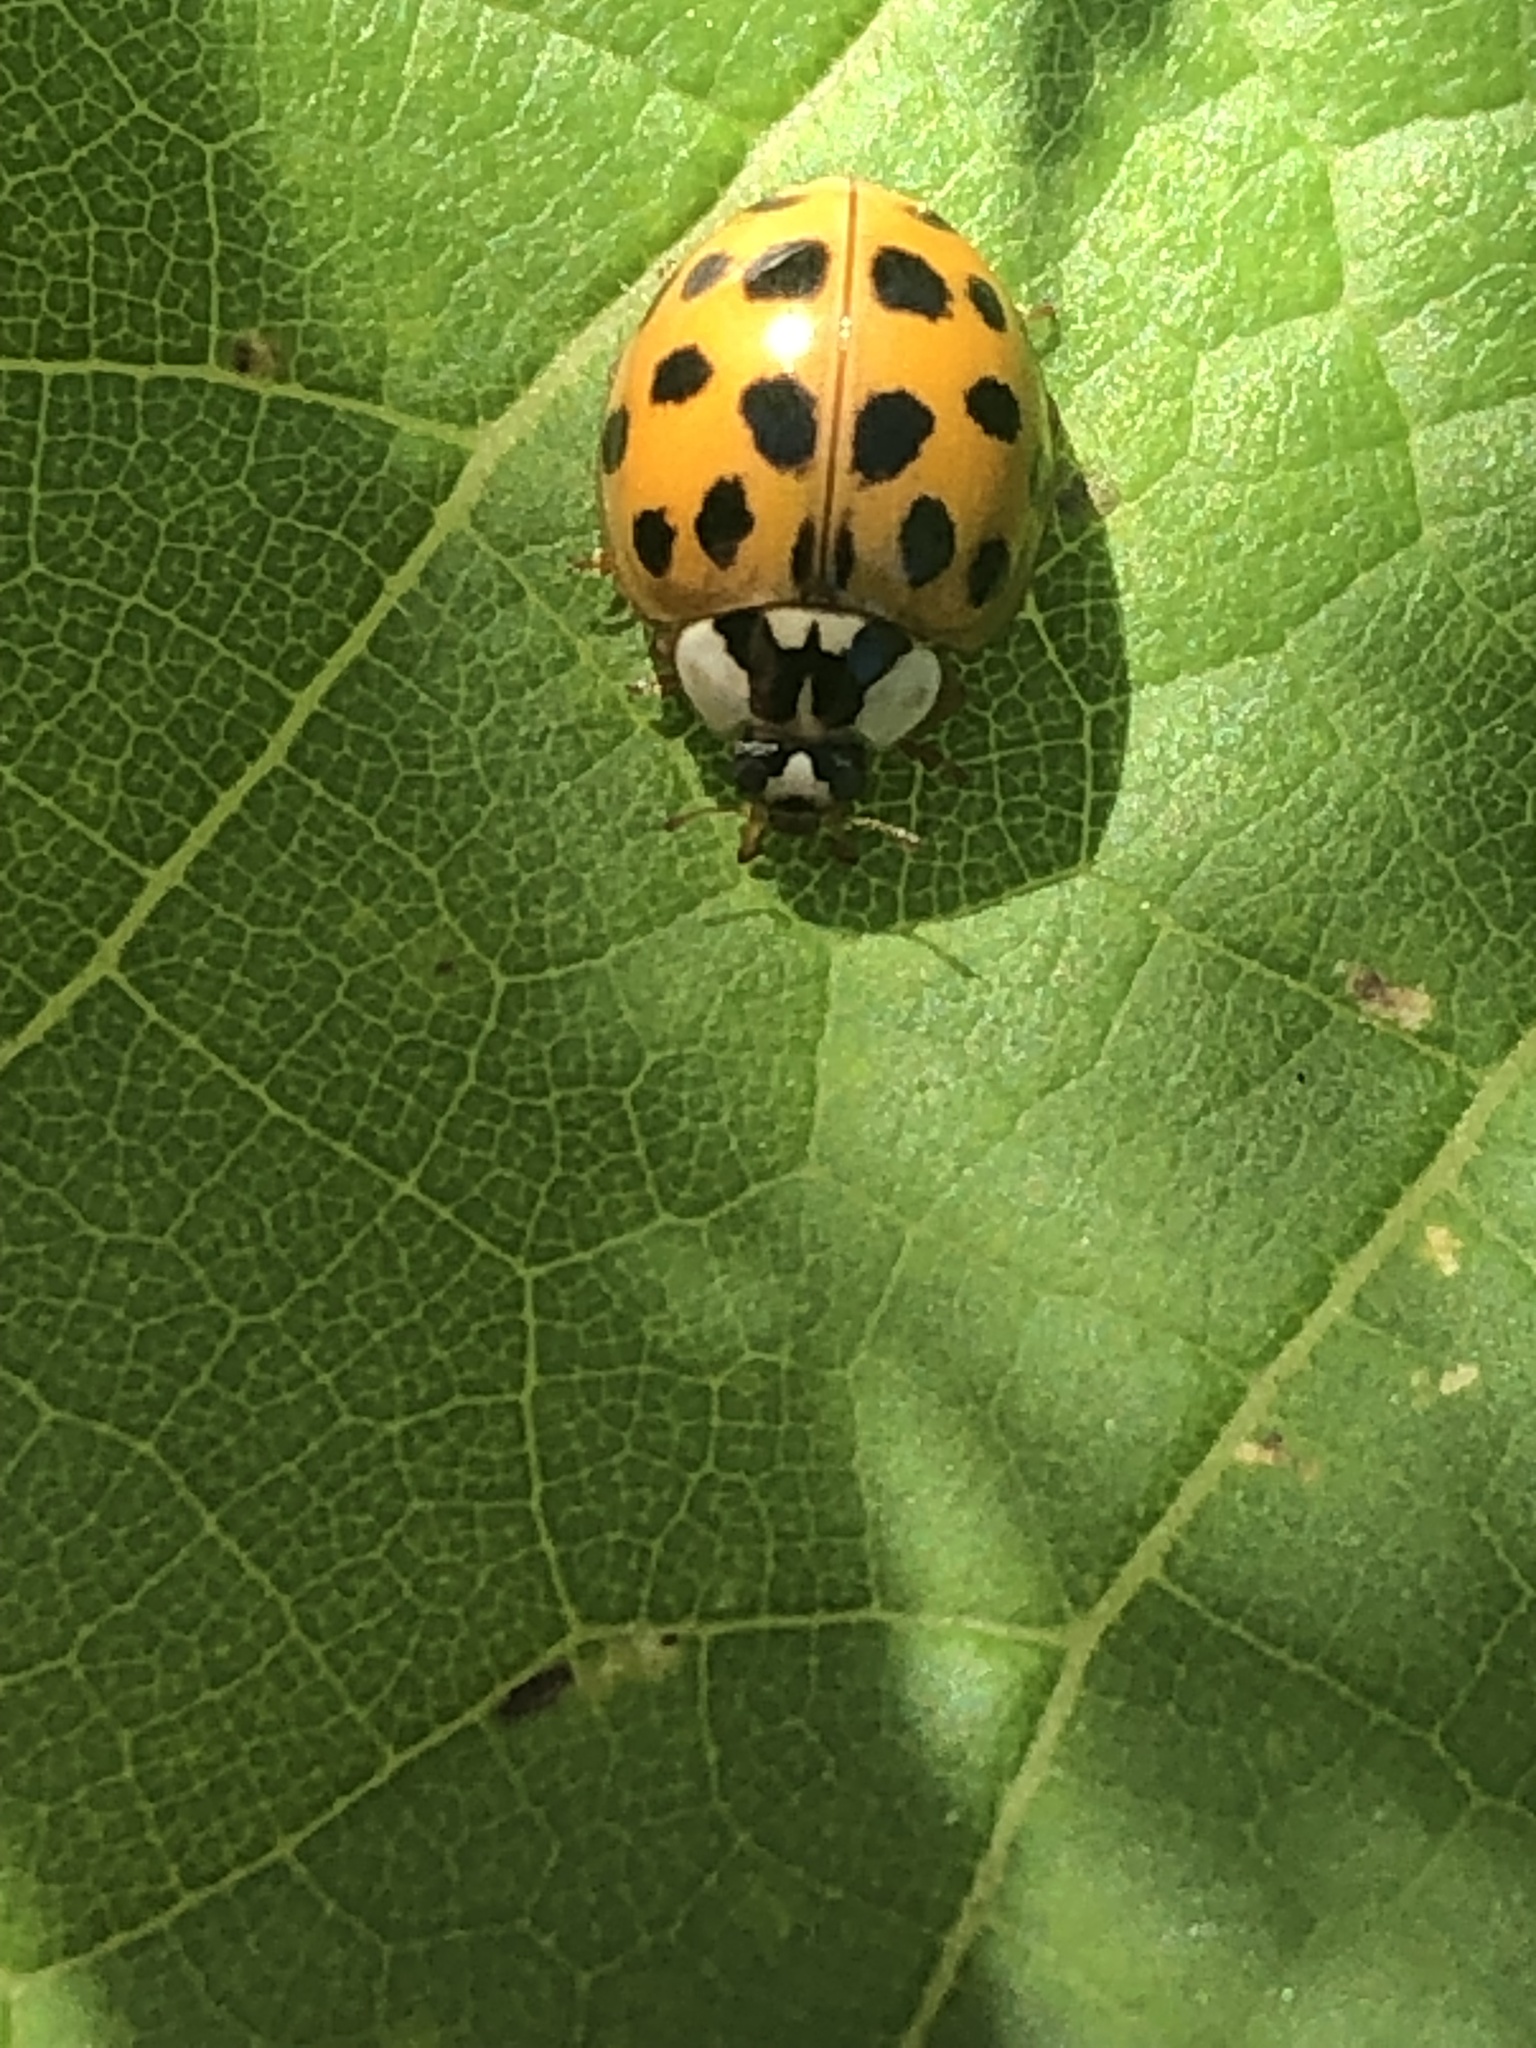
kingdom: Animalia
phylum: Arthropoda
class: Insecta
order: Coleoptera
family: Coccinellidae
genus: Harmonia
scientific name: Harmonia axyridis
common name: Harlequin ladybird
